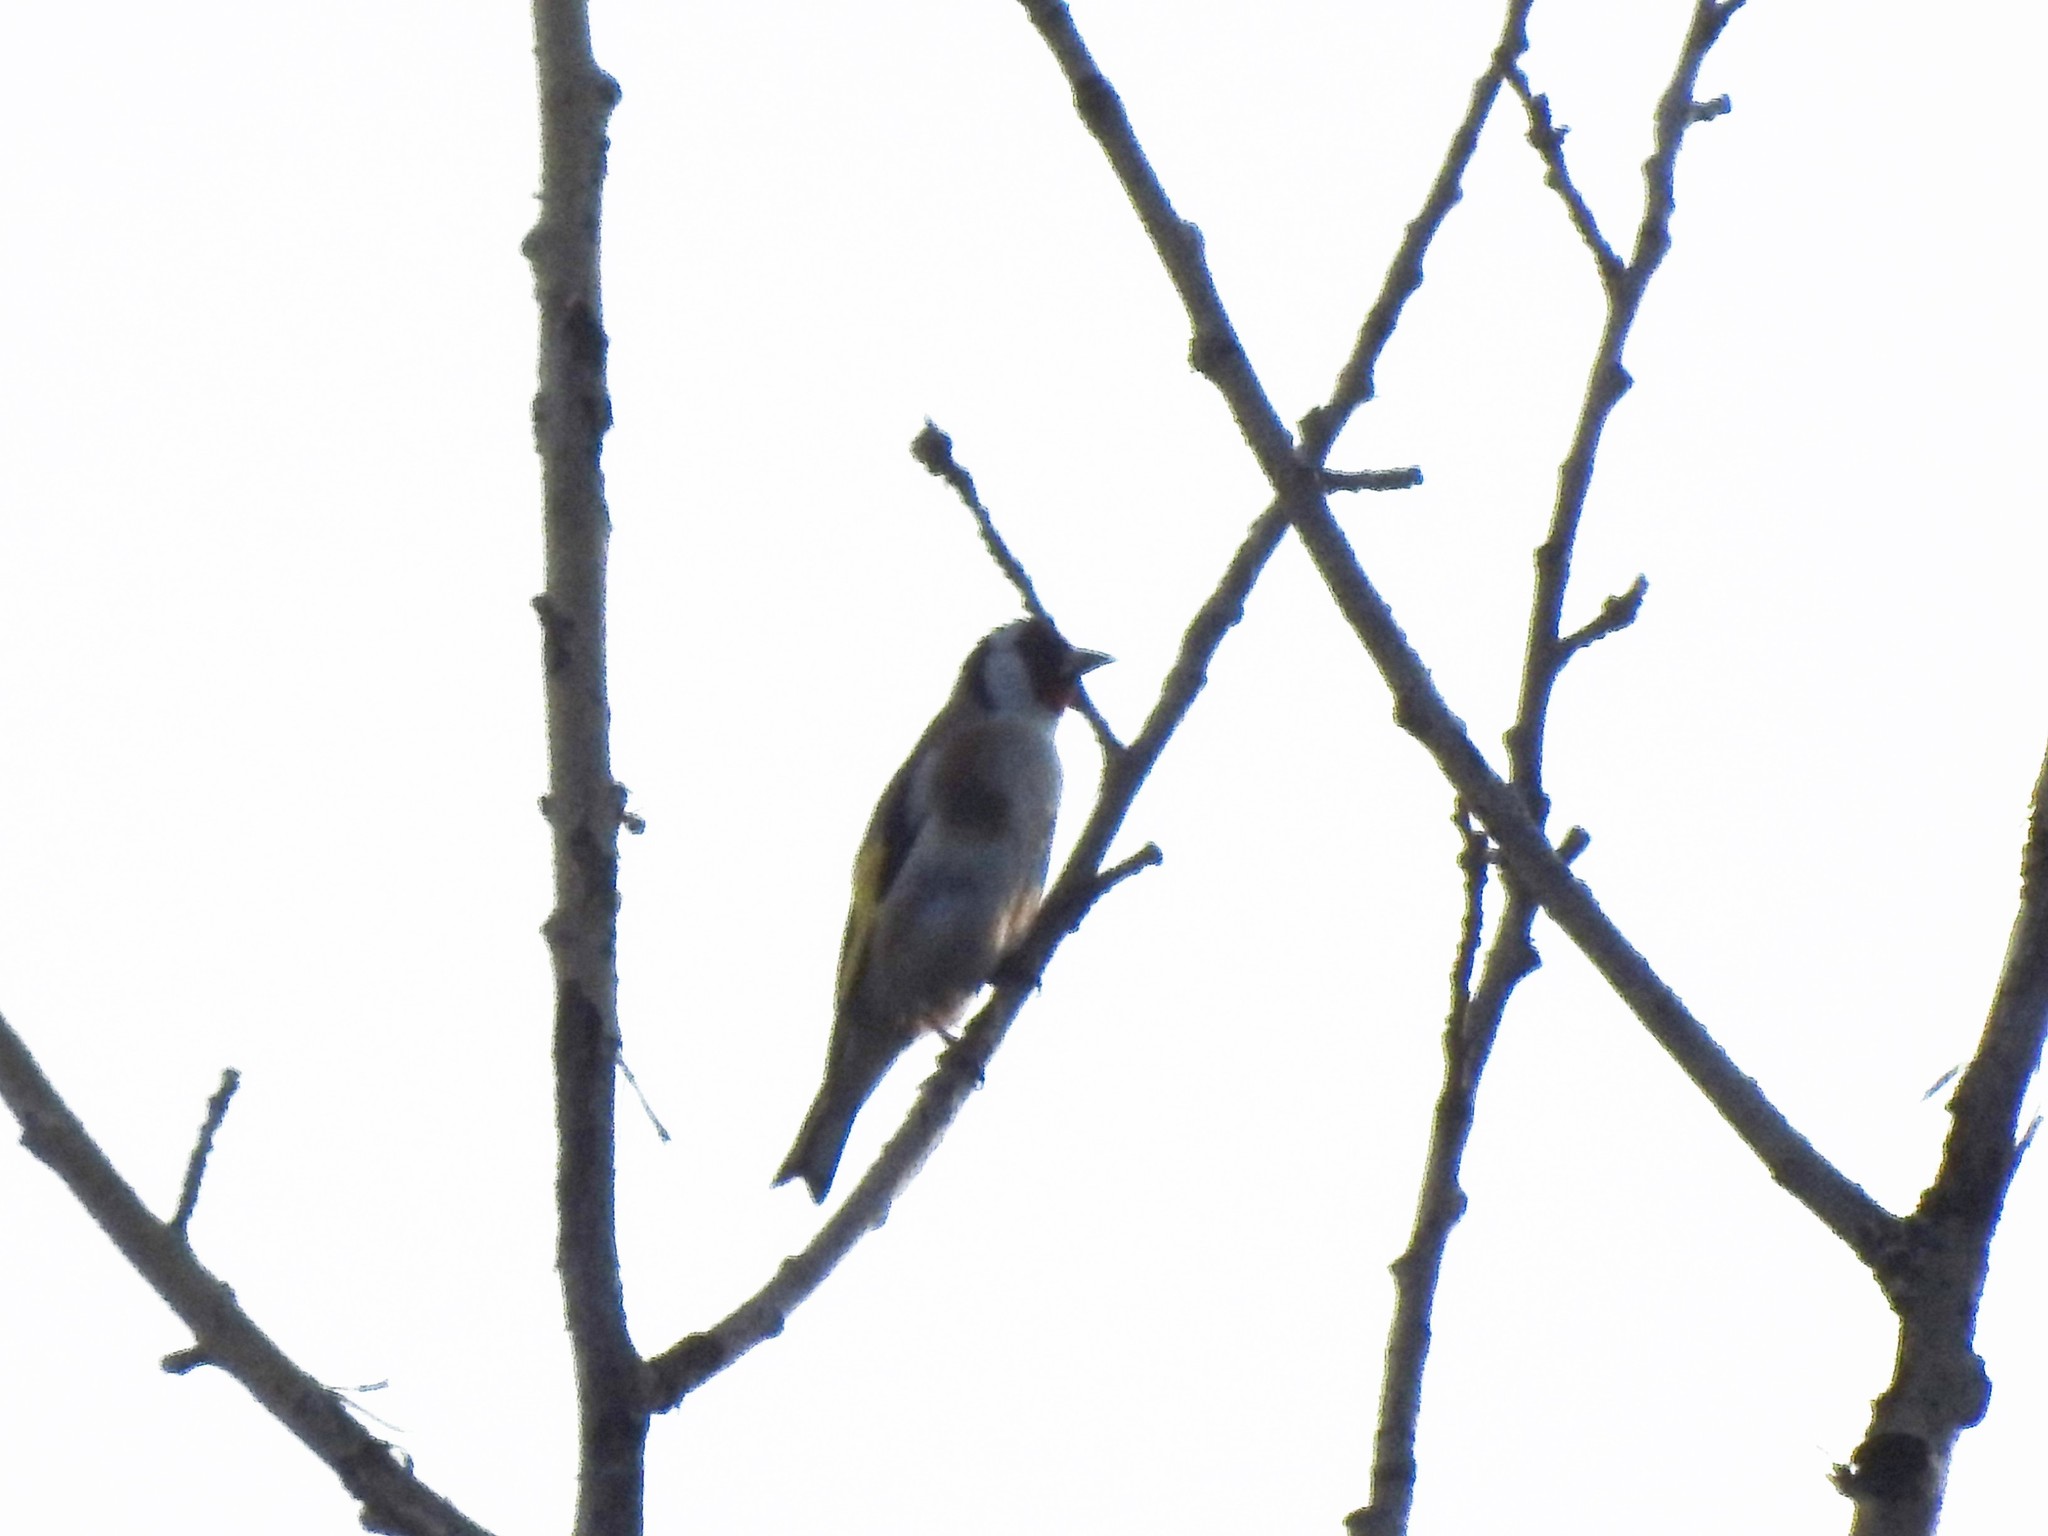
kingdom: Animalia
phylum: Chordata
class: Aves
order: Passeriformes
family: Fringillidae
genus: Carduelis
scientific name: Carduelis carduelis
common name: European goldfinch
